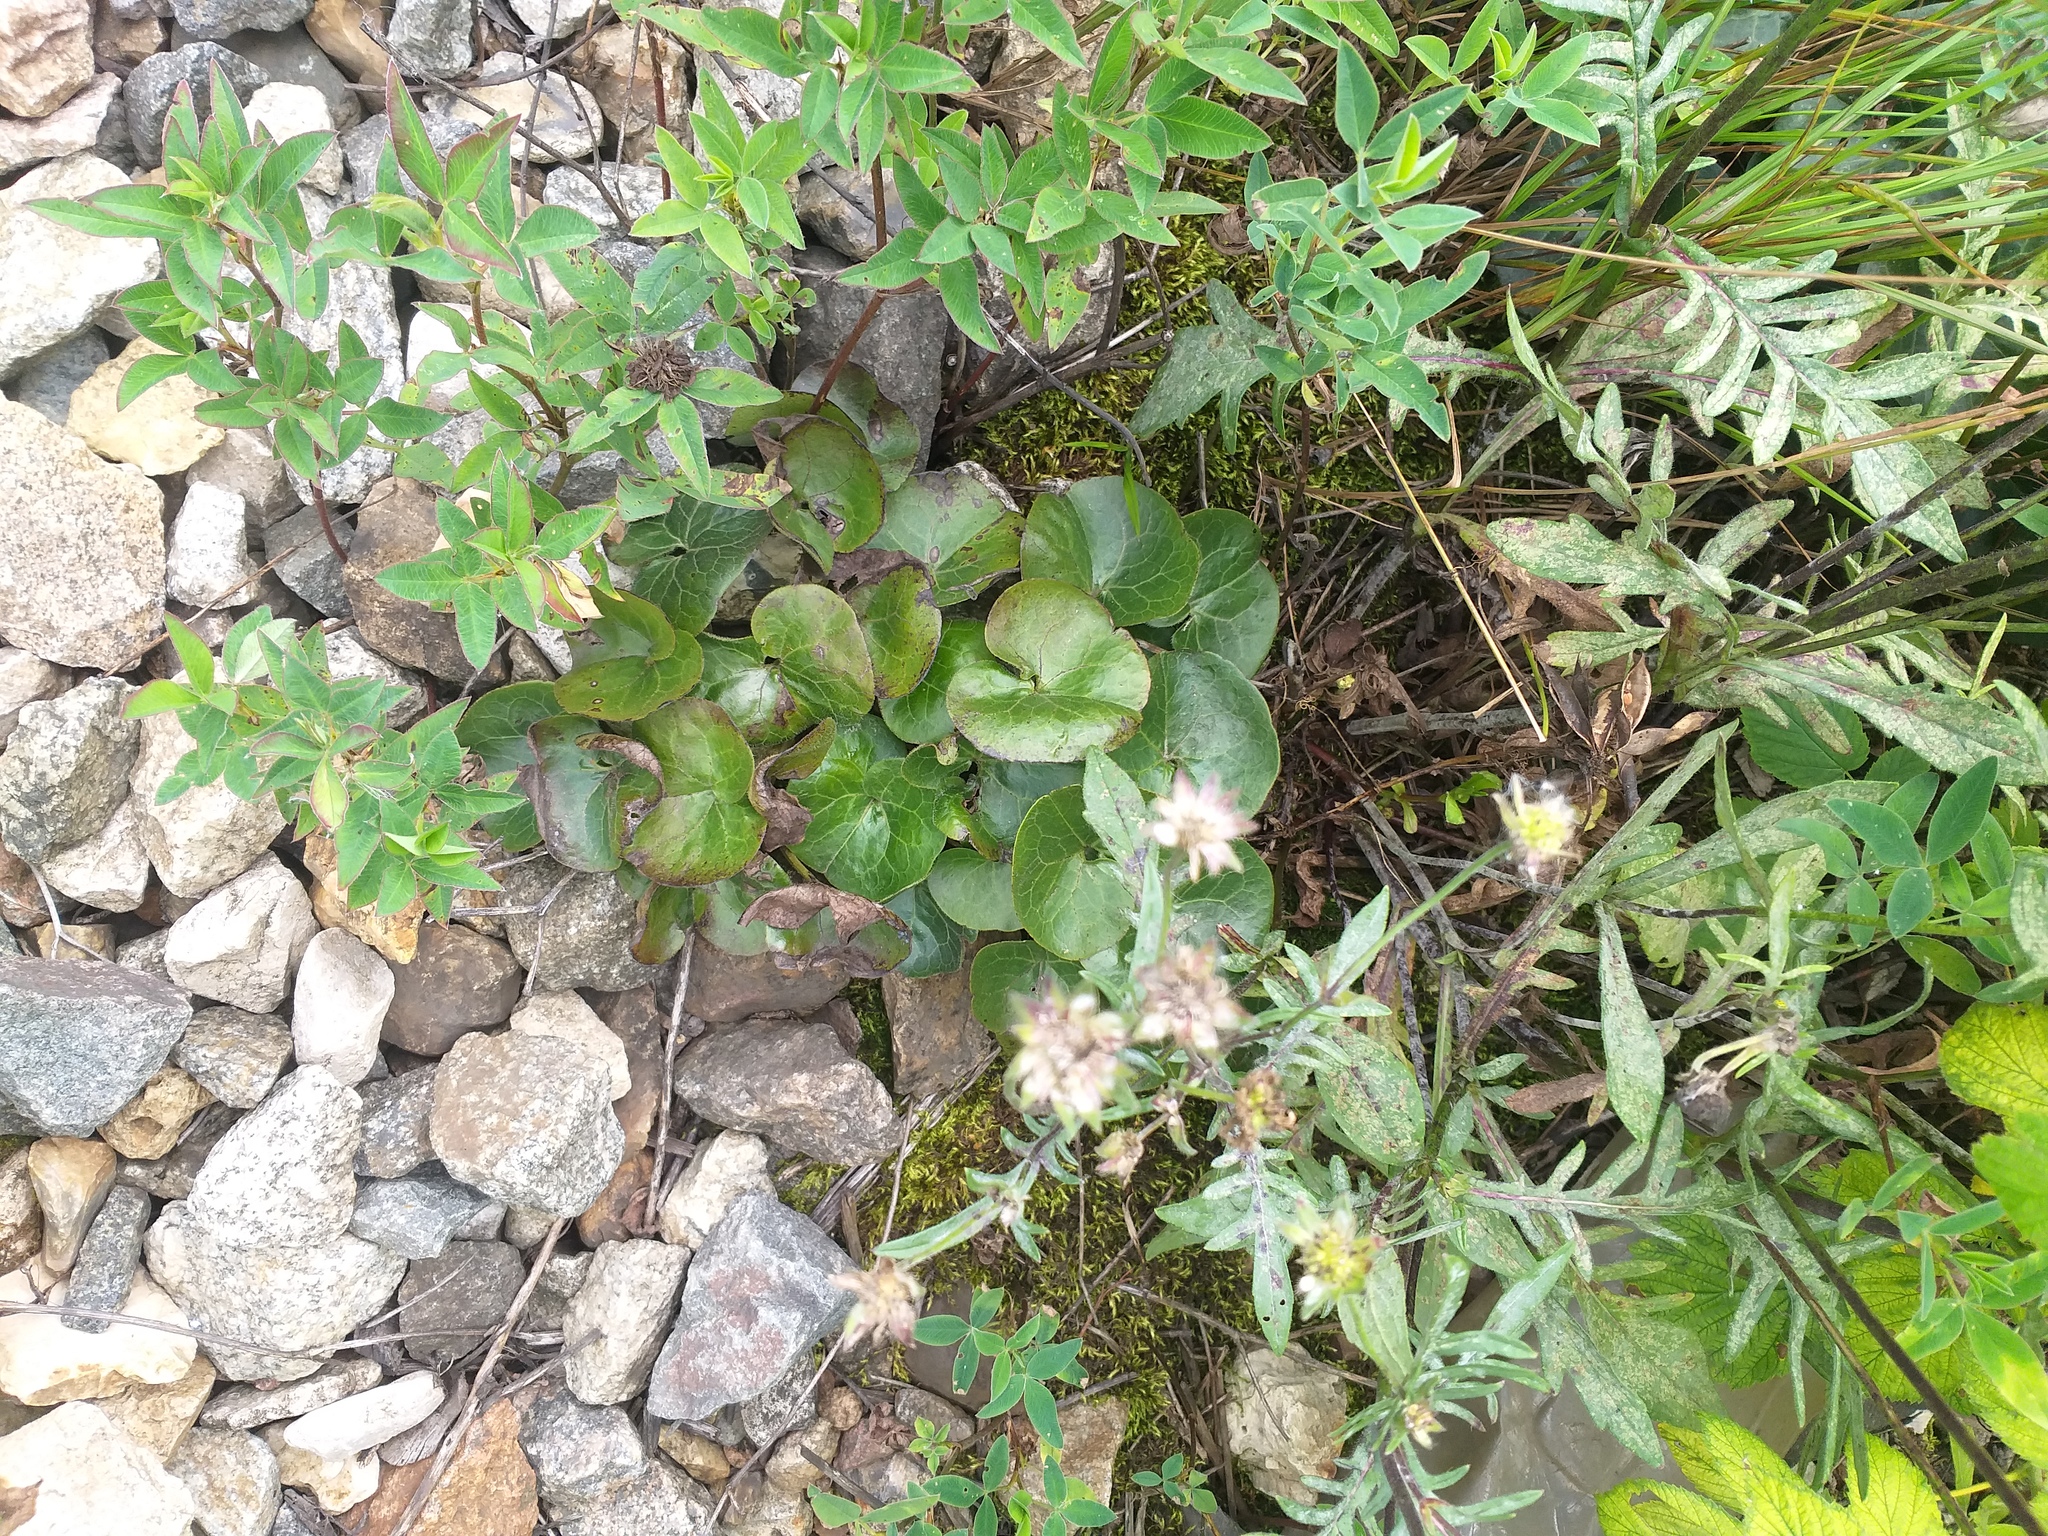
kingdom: Plantae
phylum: Tracheophyta
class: Magnoliopsida
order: Piperales
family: Aristolochiaceae
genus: Asarum
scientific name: Asarum europaeum
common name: Asarabacca
